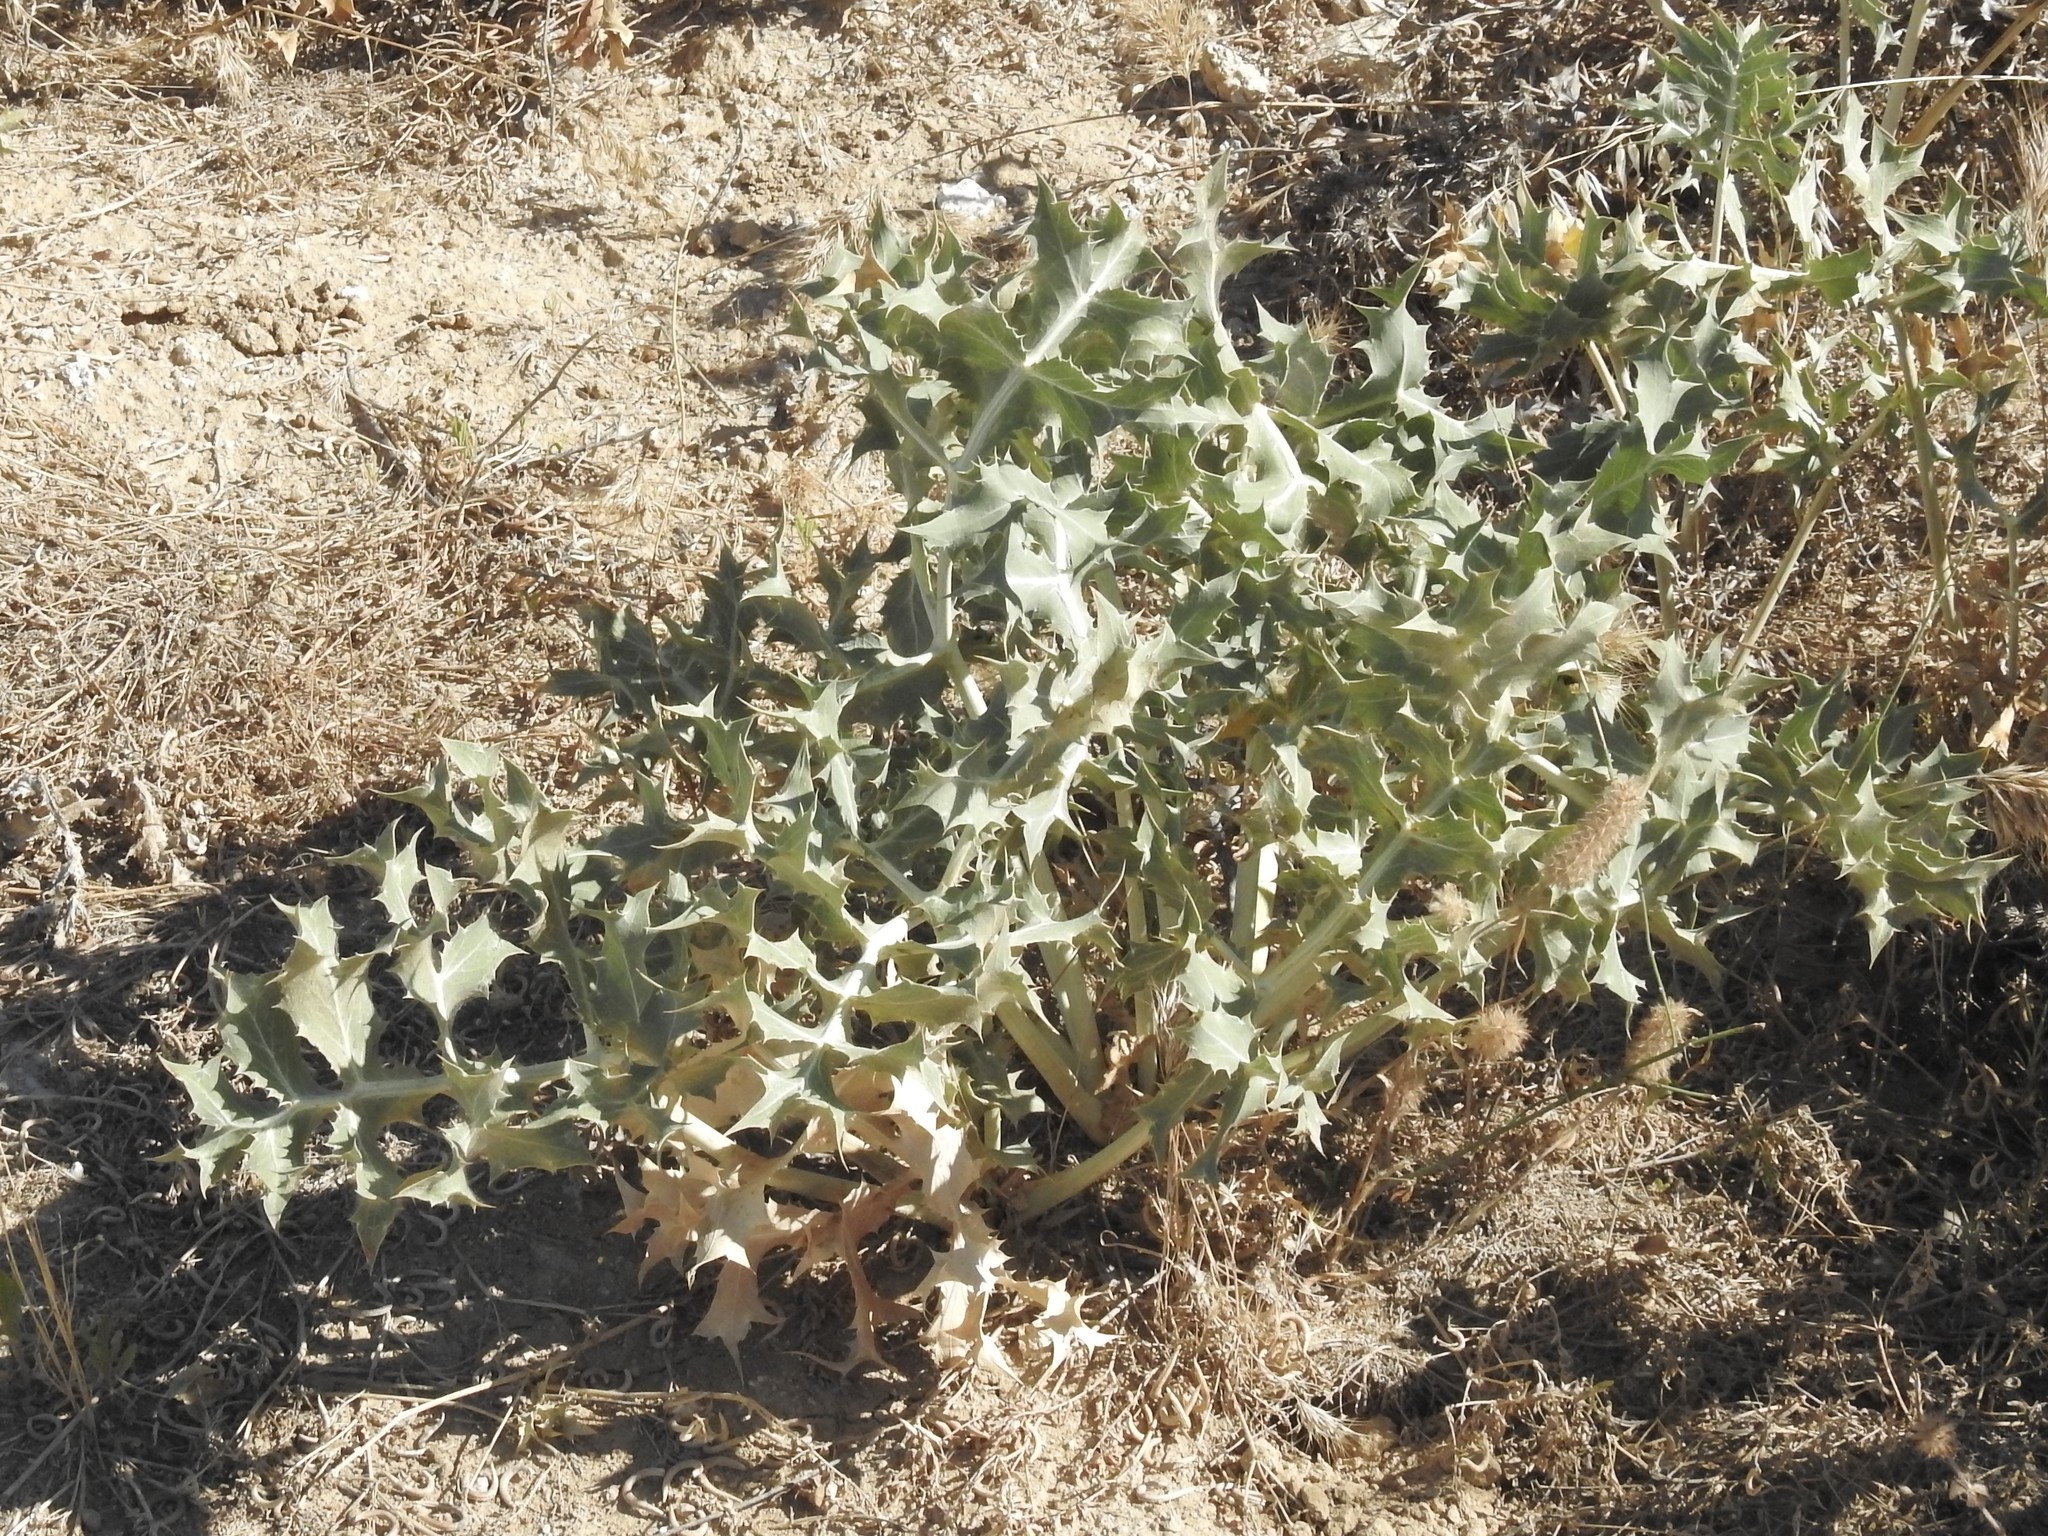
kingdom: Plantae
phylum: Tracheophyta
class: Magnoliopsida
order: Apiales
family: Apiaceae
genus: Eryngium
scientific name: Eryngium campestre
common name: Field eryngo
